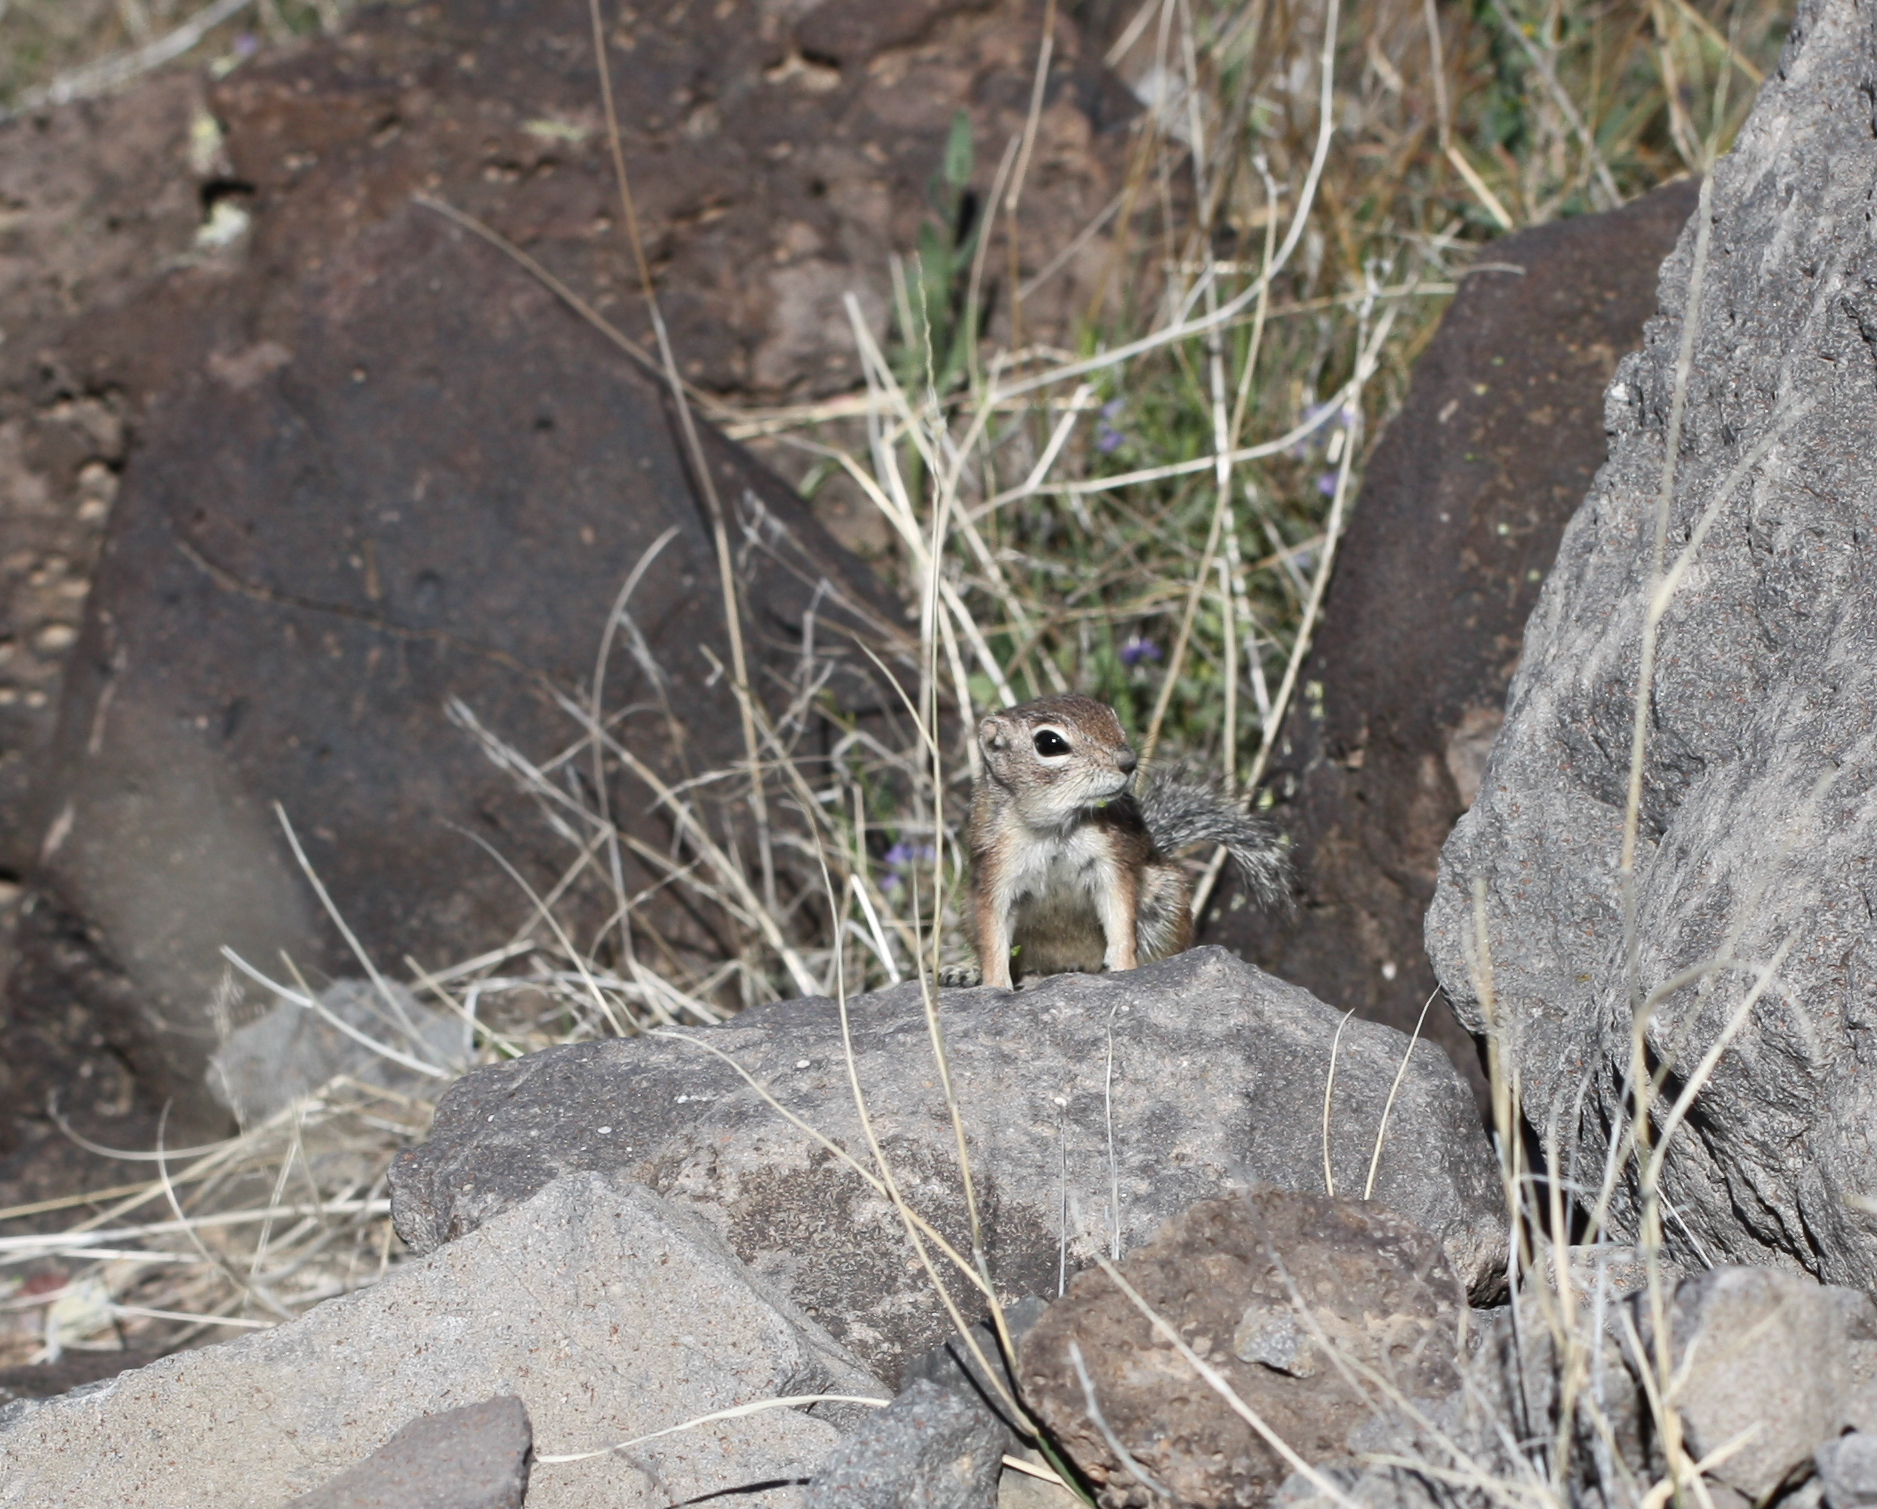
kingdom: Animalia
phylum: Chordata
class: Mammalia
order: Rodentia
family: Sciuridae
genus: Ammospermophilus
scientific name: Ammospermophilus harrisii
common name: Harris's antelope squirrel
